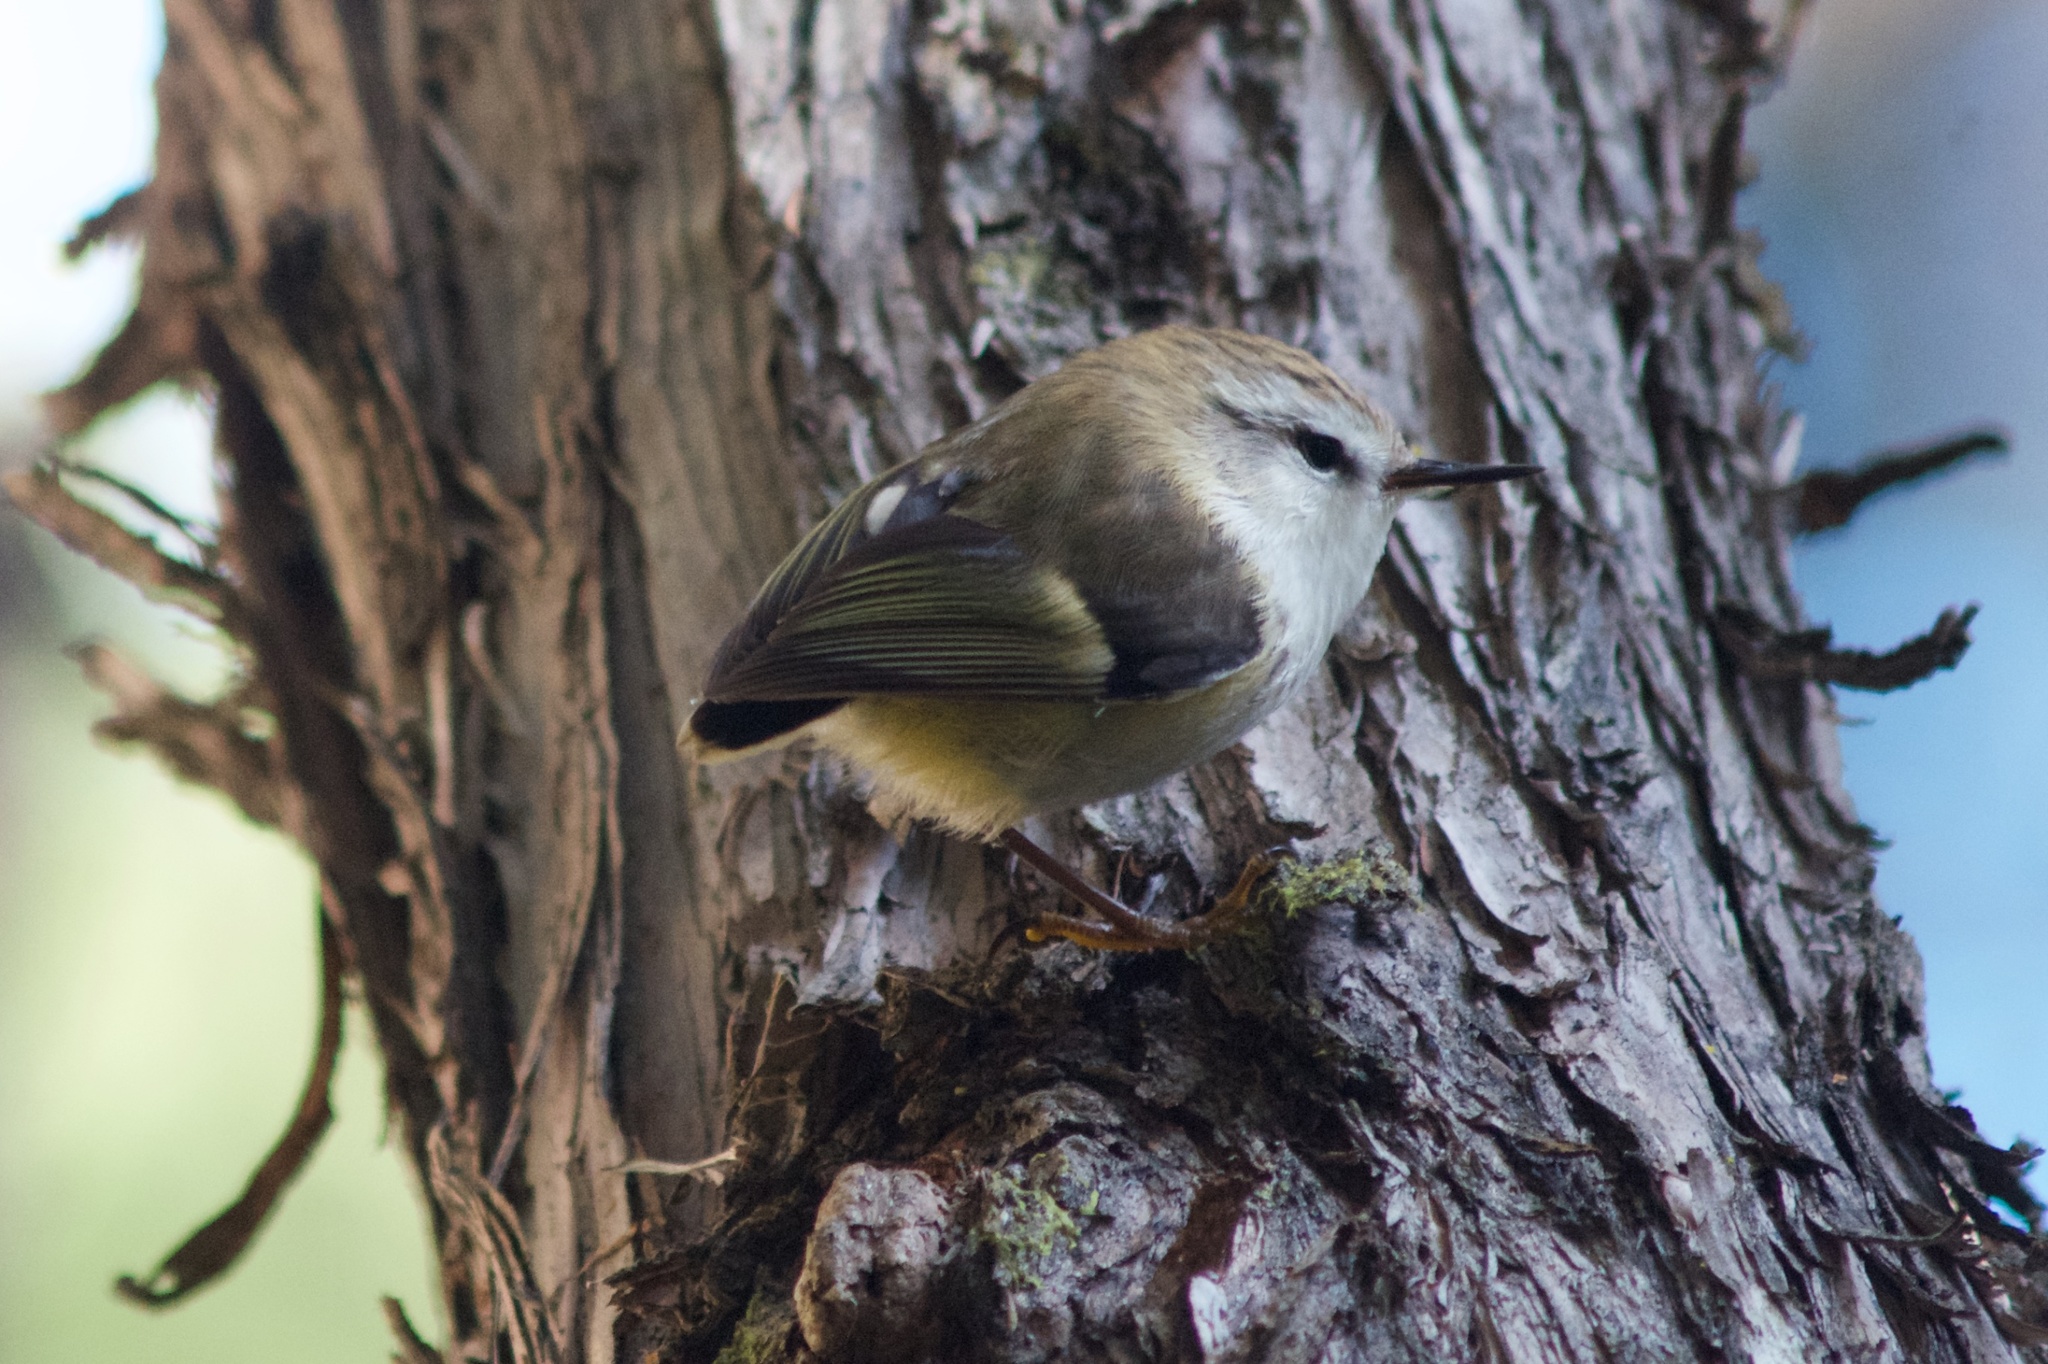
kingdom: Animalia
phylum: Chordata
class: Aves
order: Passeriformes
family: Acanthisittidae
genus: Acanthisitta
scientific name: Acanthisitta chloris
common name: Rifleman
